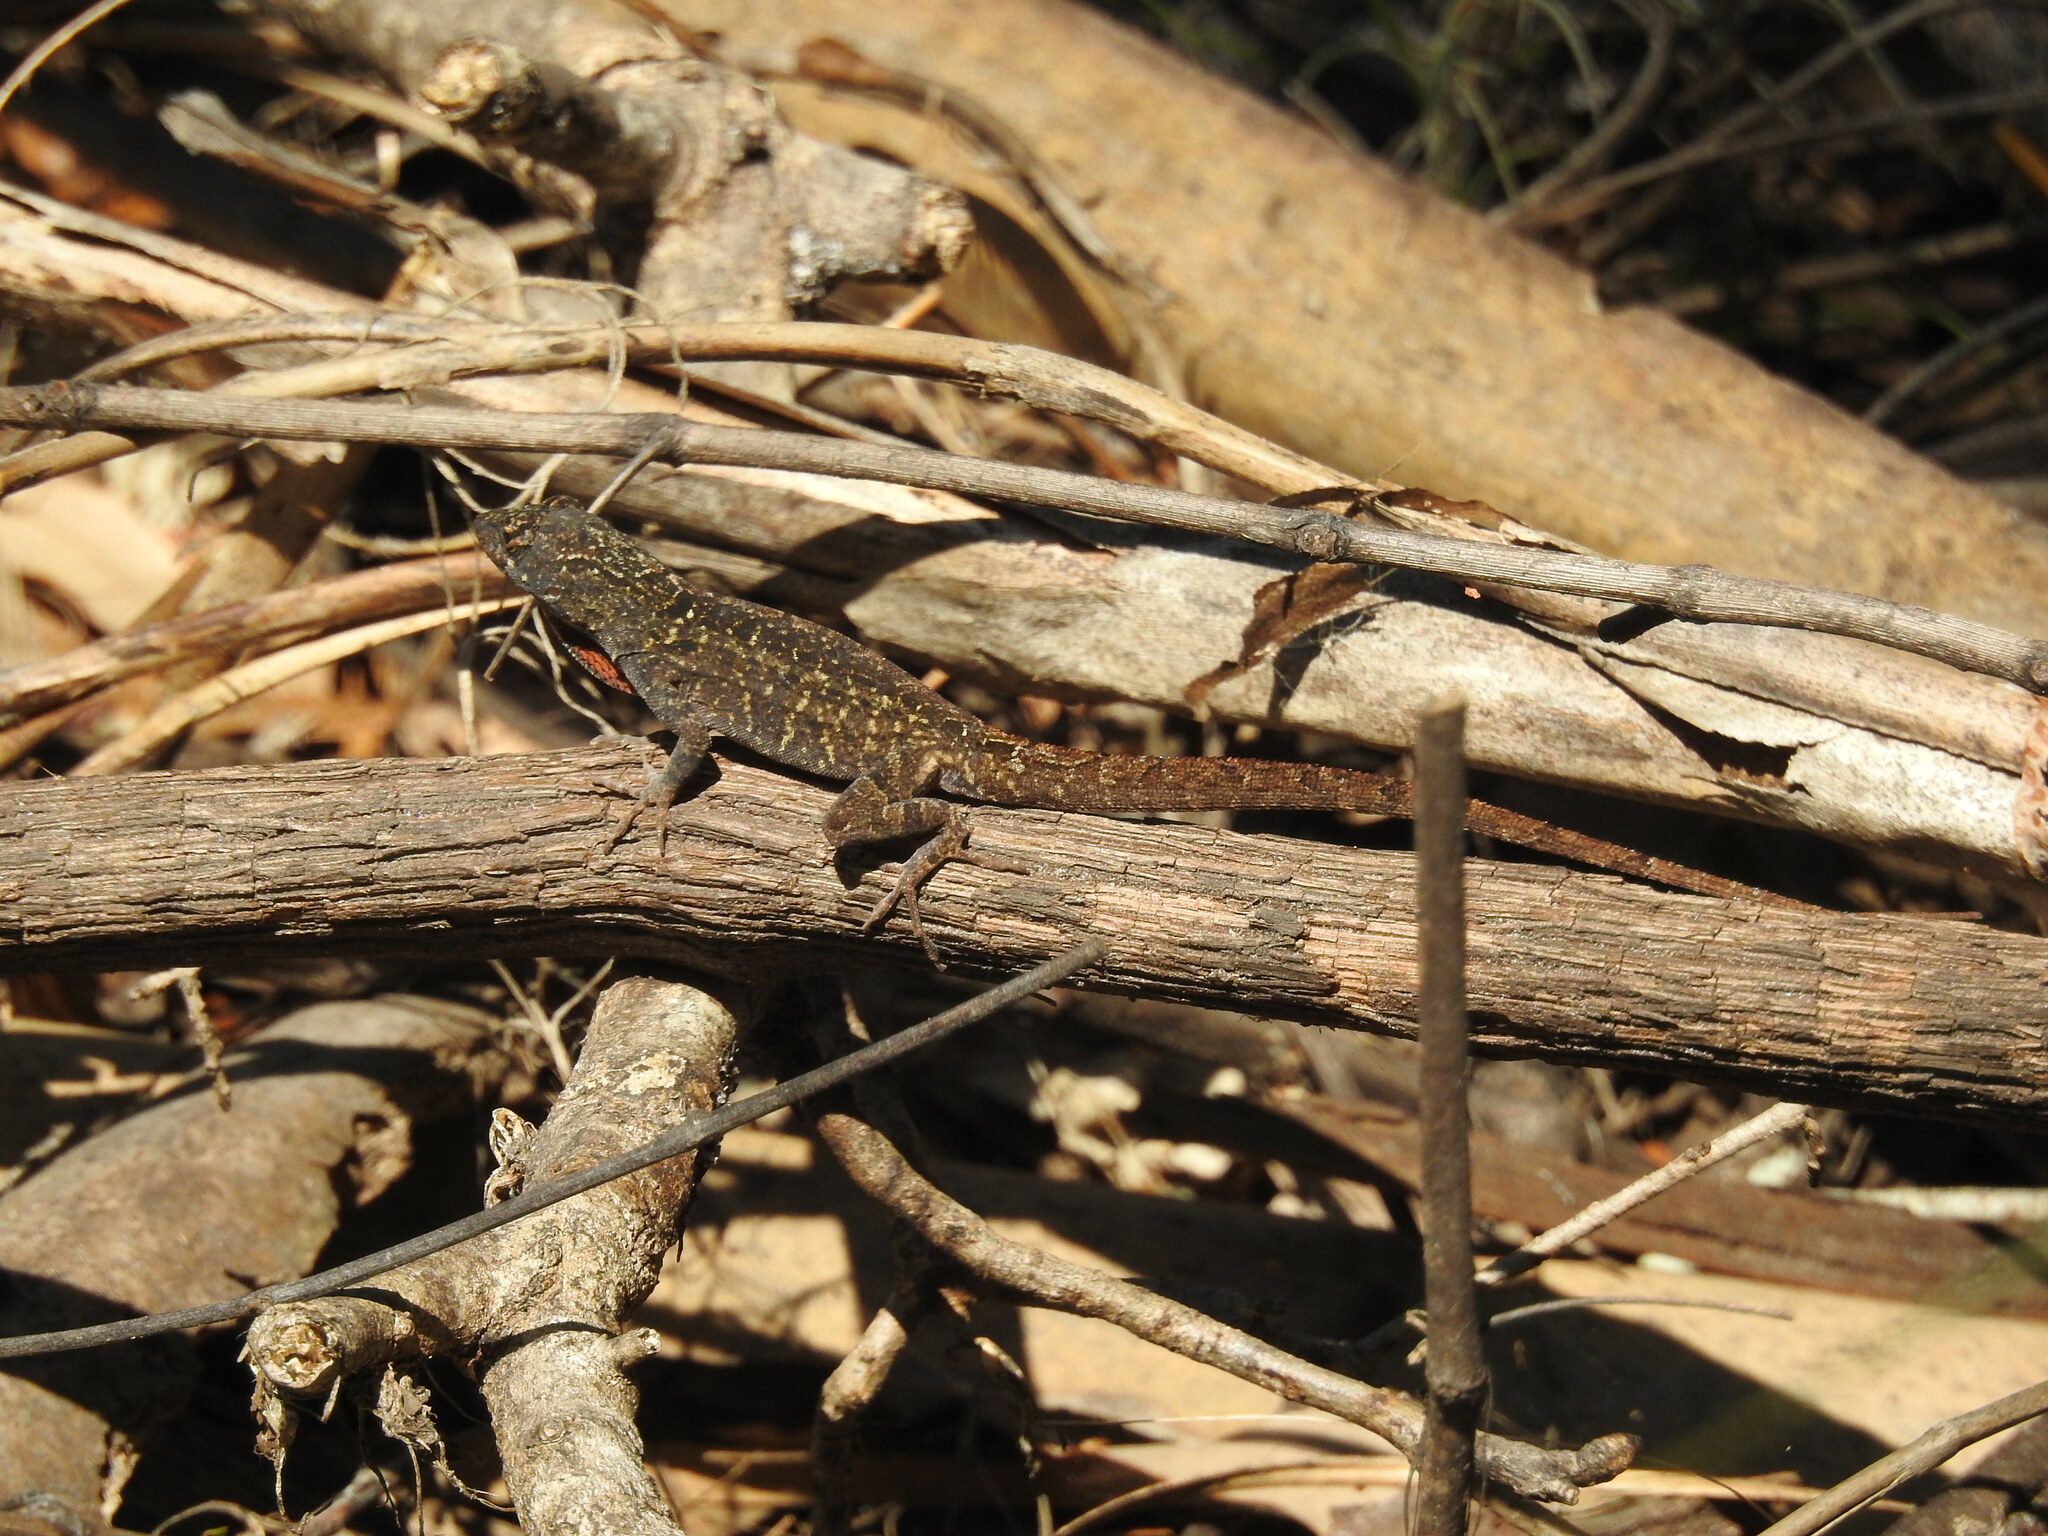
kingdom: Animalia
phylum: Chordata
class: Squamata
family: Dactyloidae
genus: Anolis
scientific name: Anolis sagrei
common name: Brown anole
